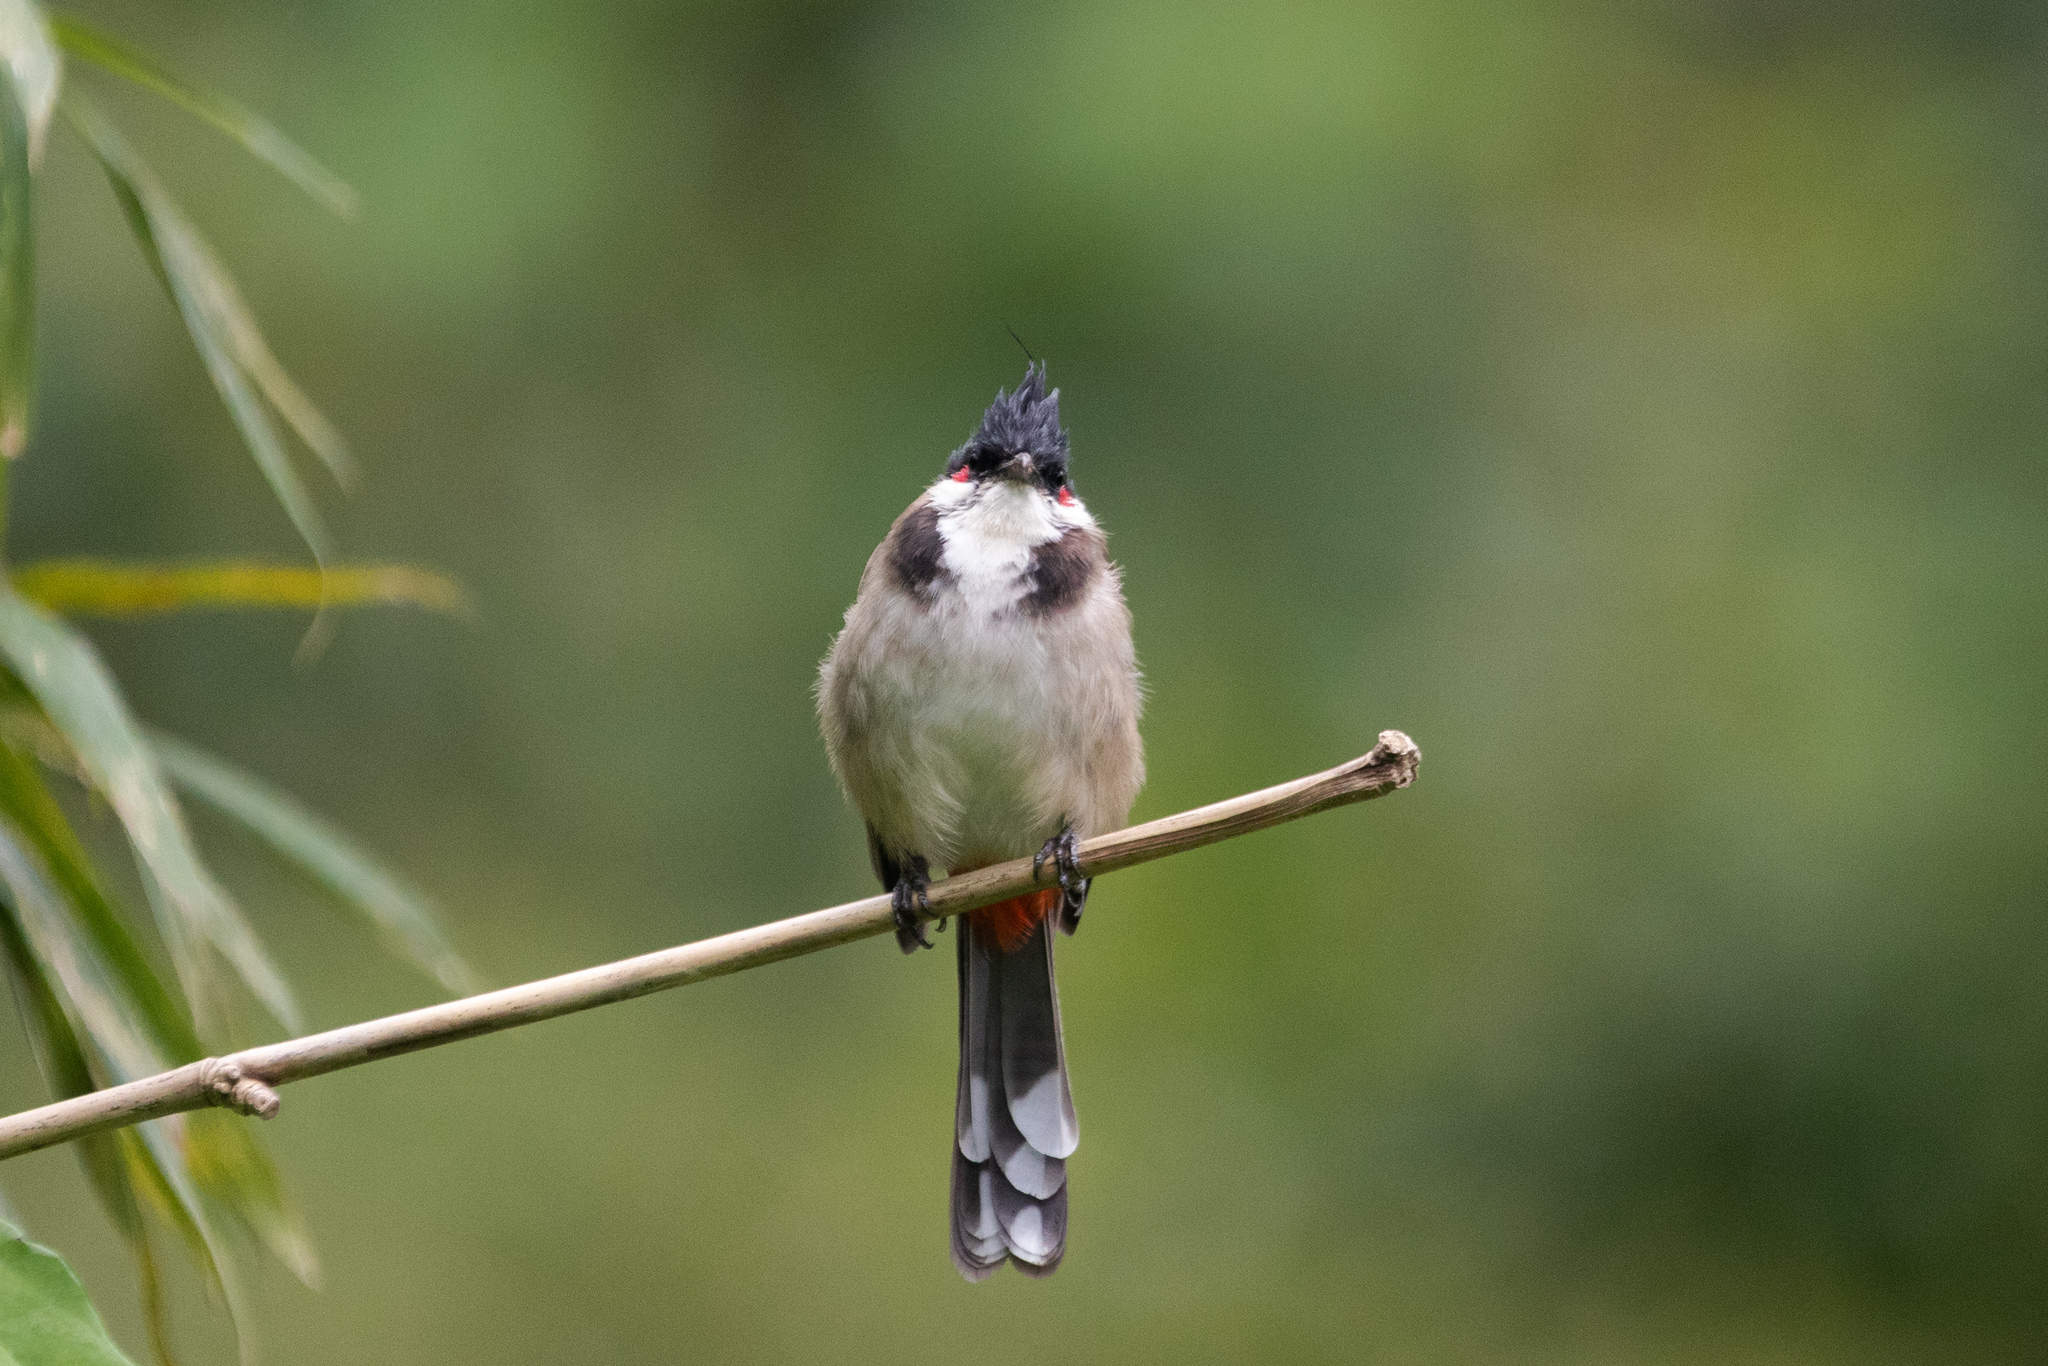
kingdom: Animalia
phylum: Chordata
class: Aves
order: Passeriformes
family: Pycnonotidae
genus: Pycnonotus
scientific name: Pycnonotus jocosus
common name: Red-whiskered bulbul
